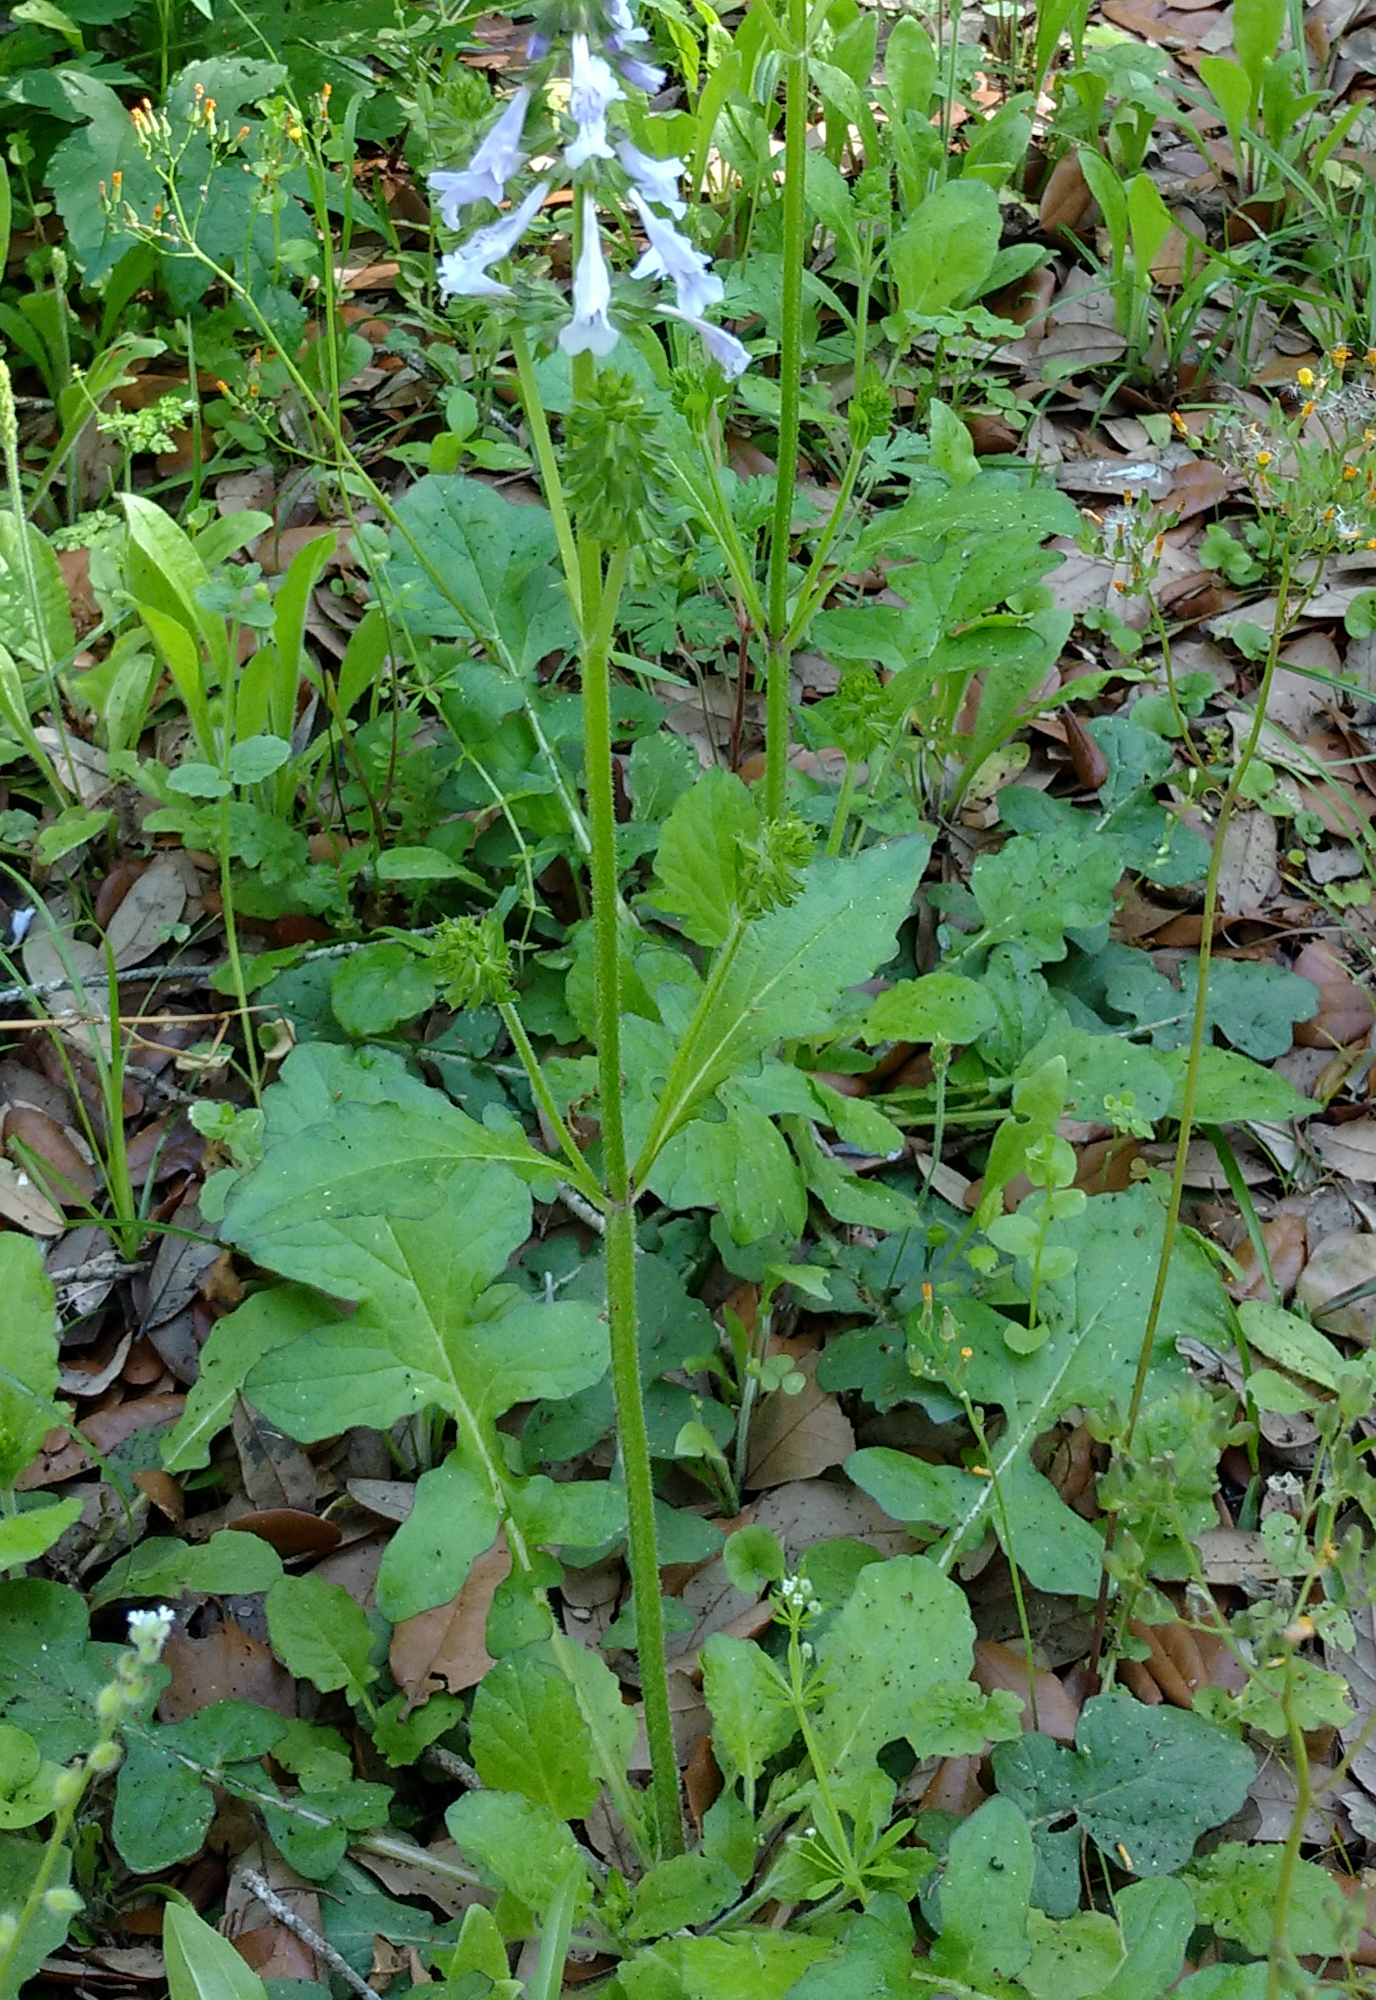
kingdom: Plantae
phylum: Tracheophyta
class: Magnoliopsida
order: Lamiales
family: Lamiaceae
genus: Salvia
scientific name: Salvia lyrata
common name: Cancerweed
